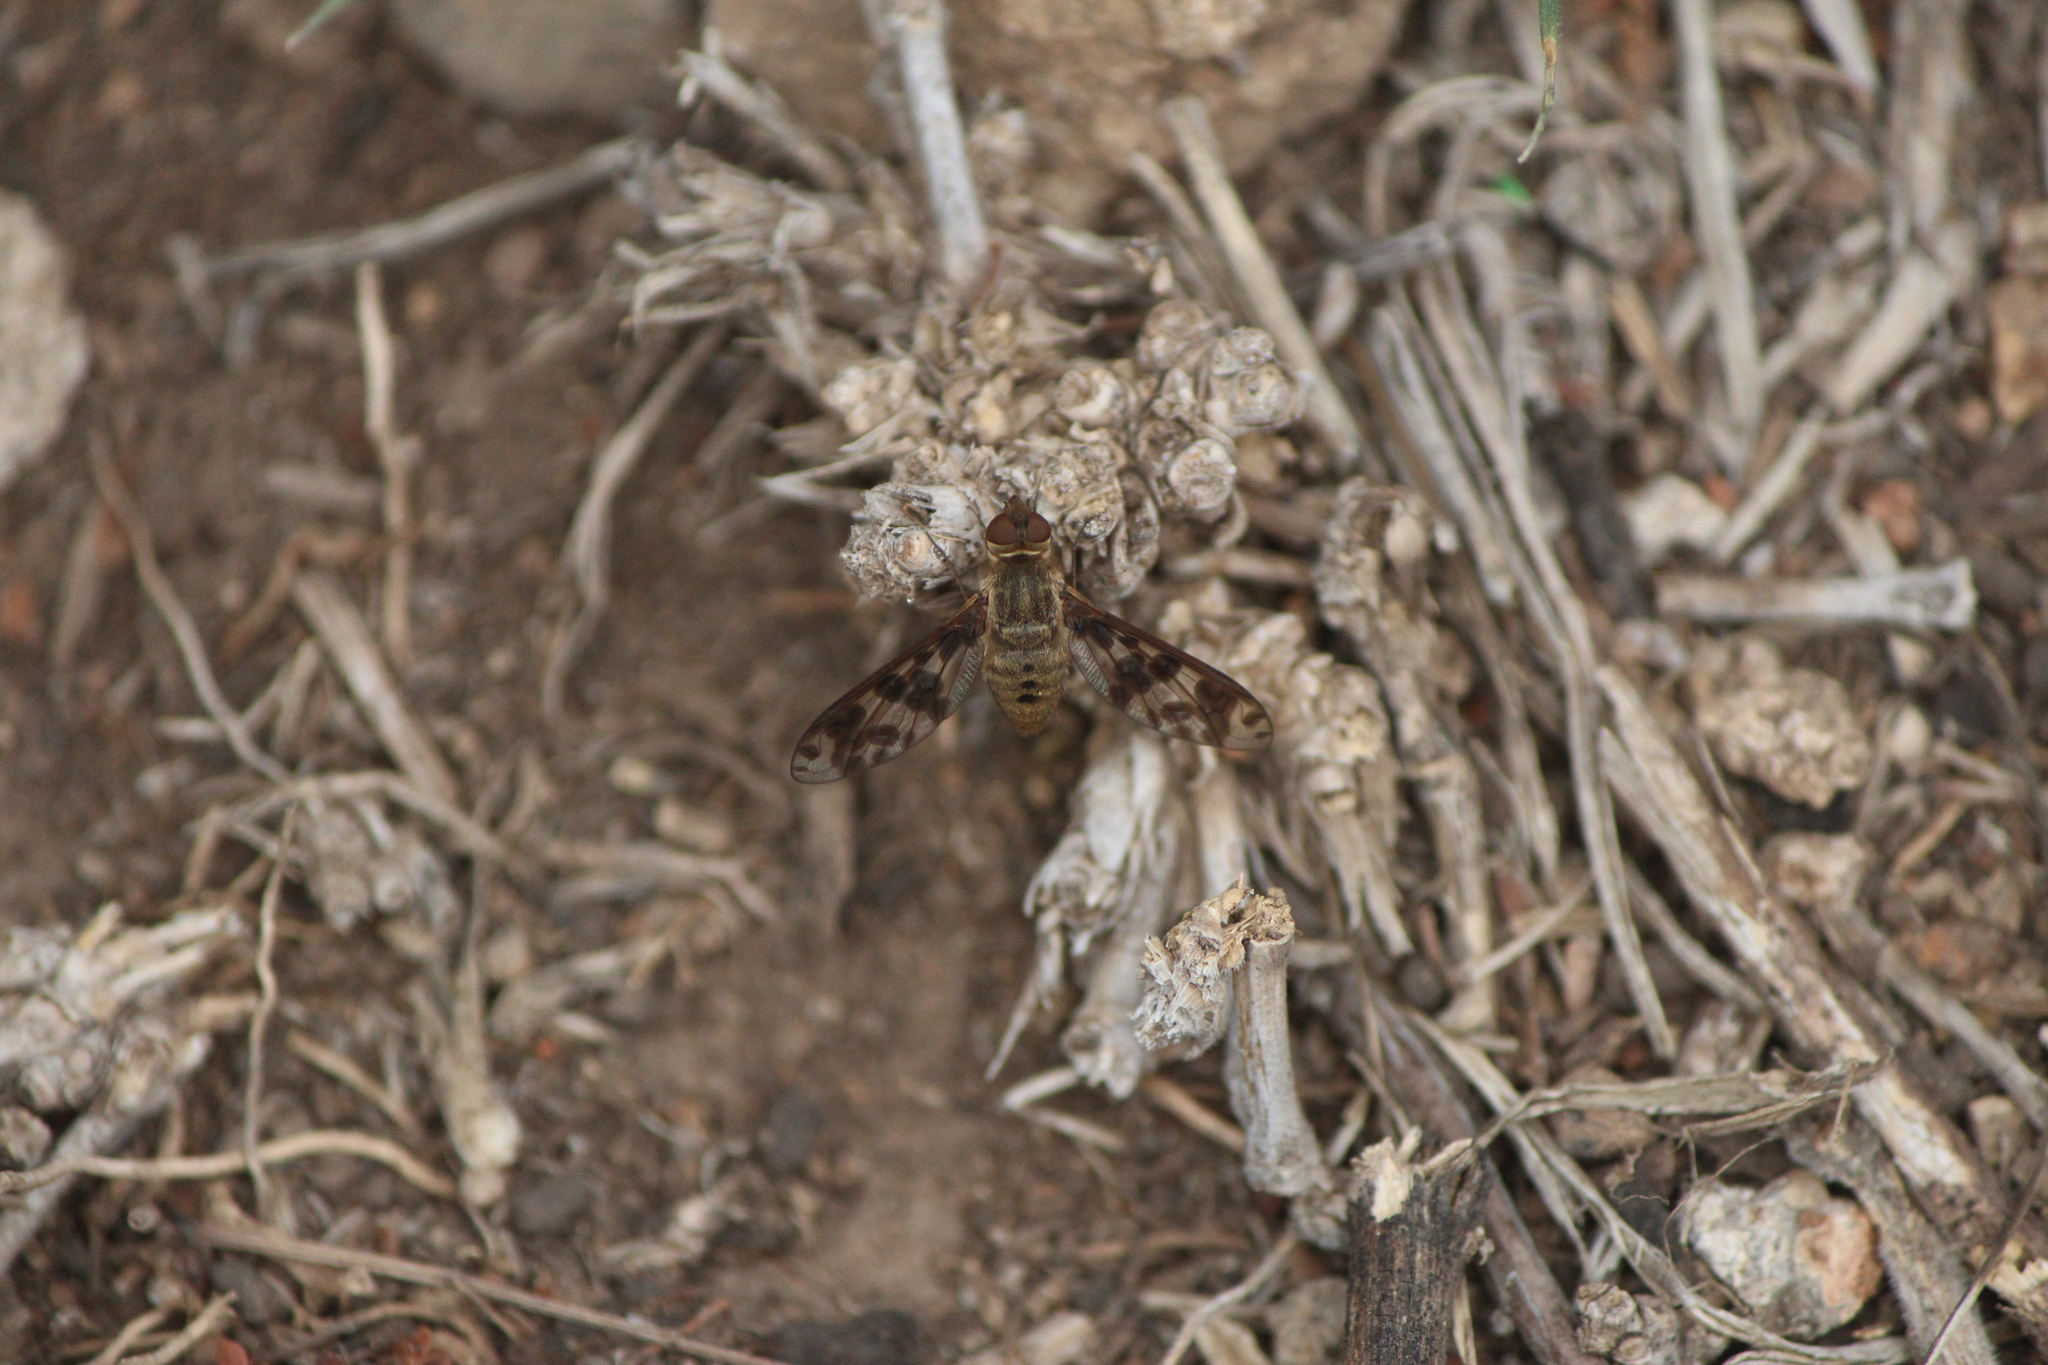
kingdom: Animalia
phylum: Arthropoda
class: Insecta
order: Diptera
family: Bombyliidae
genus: Dipalta
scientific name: Dipalta serpentina
